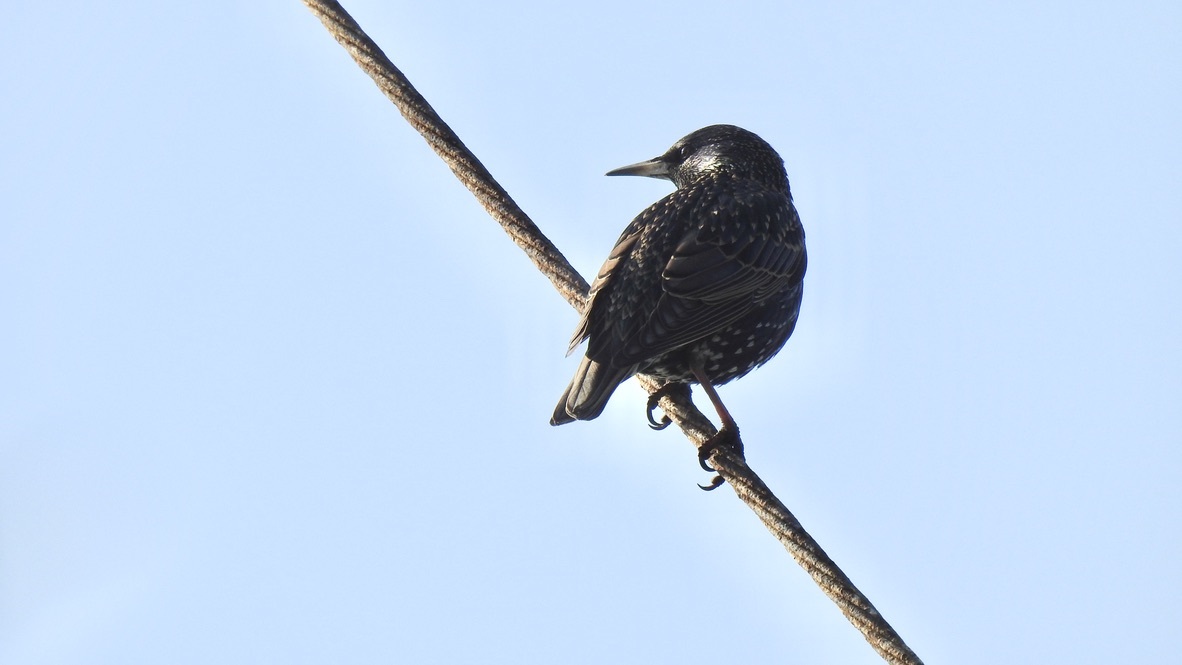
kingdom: Animalia
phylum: Chordata
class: Aves
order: Passeriformes
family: Sturnidae
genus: Sturnus
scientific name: Sturnus vulgaris
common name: Common starling
